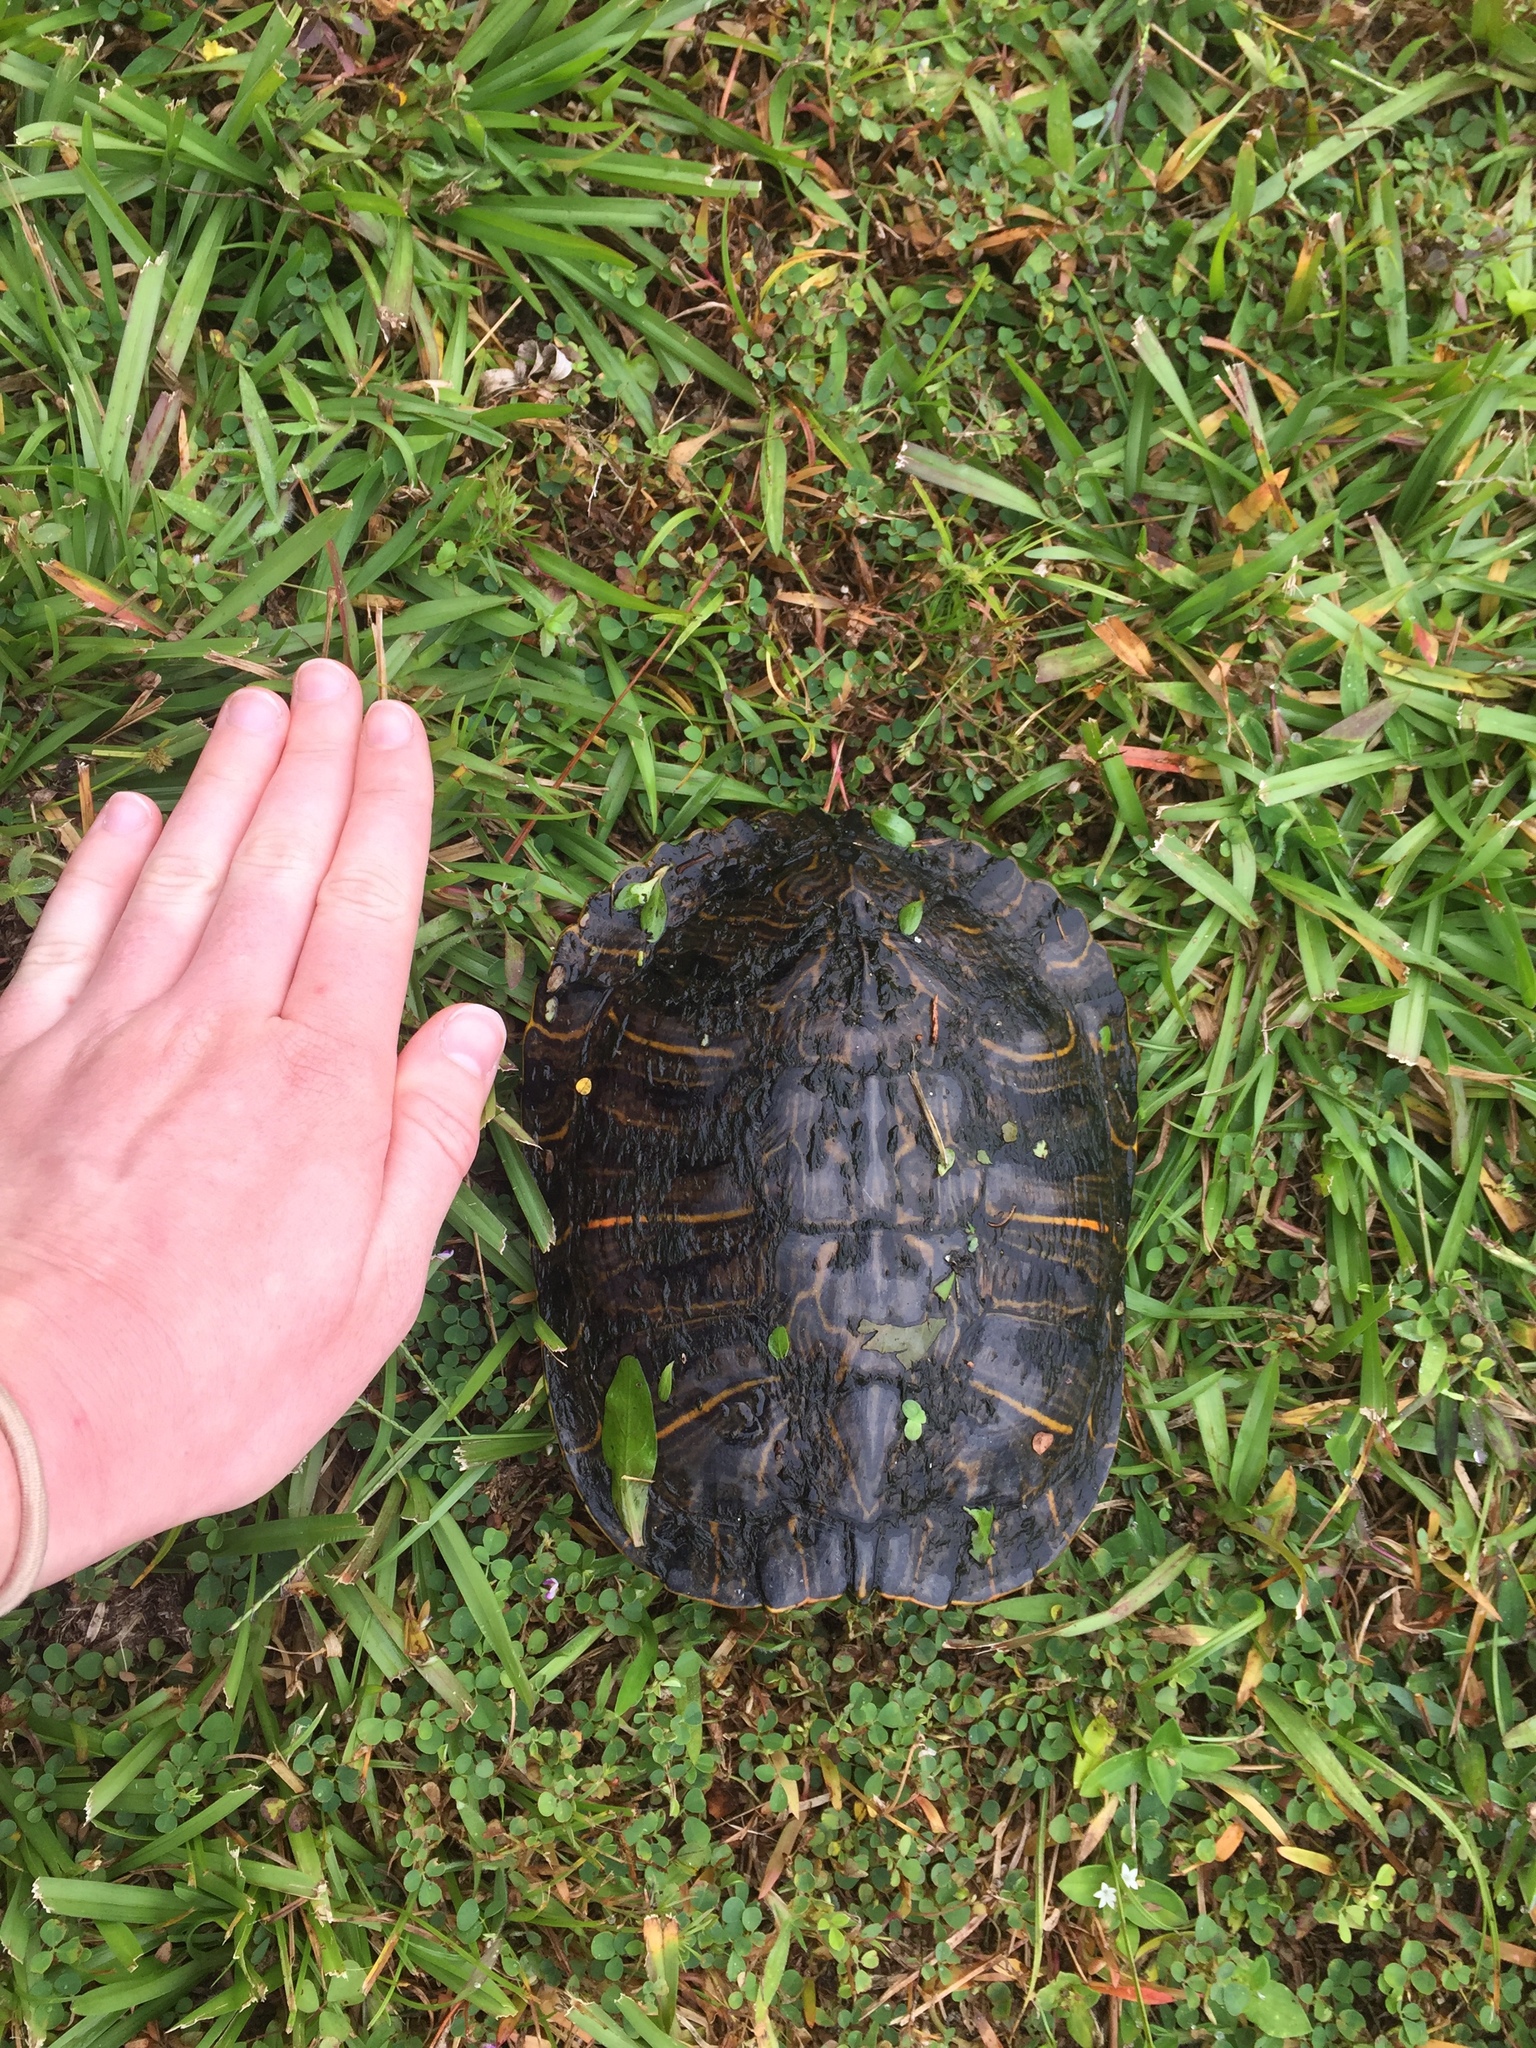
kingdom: Animalia
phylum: Chordata
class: Testudines
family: Emydidae
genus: Trachemys
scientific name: Trachemys scripta
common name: Slider
